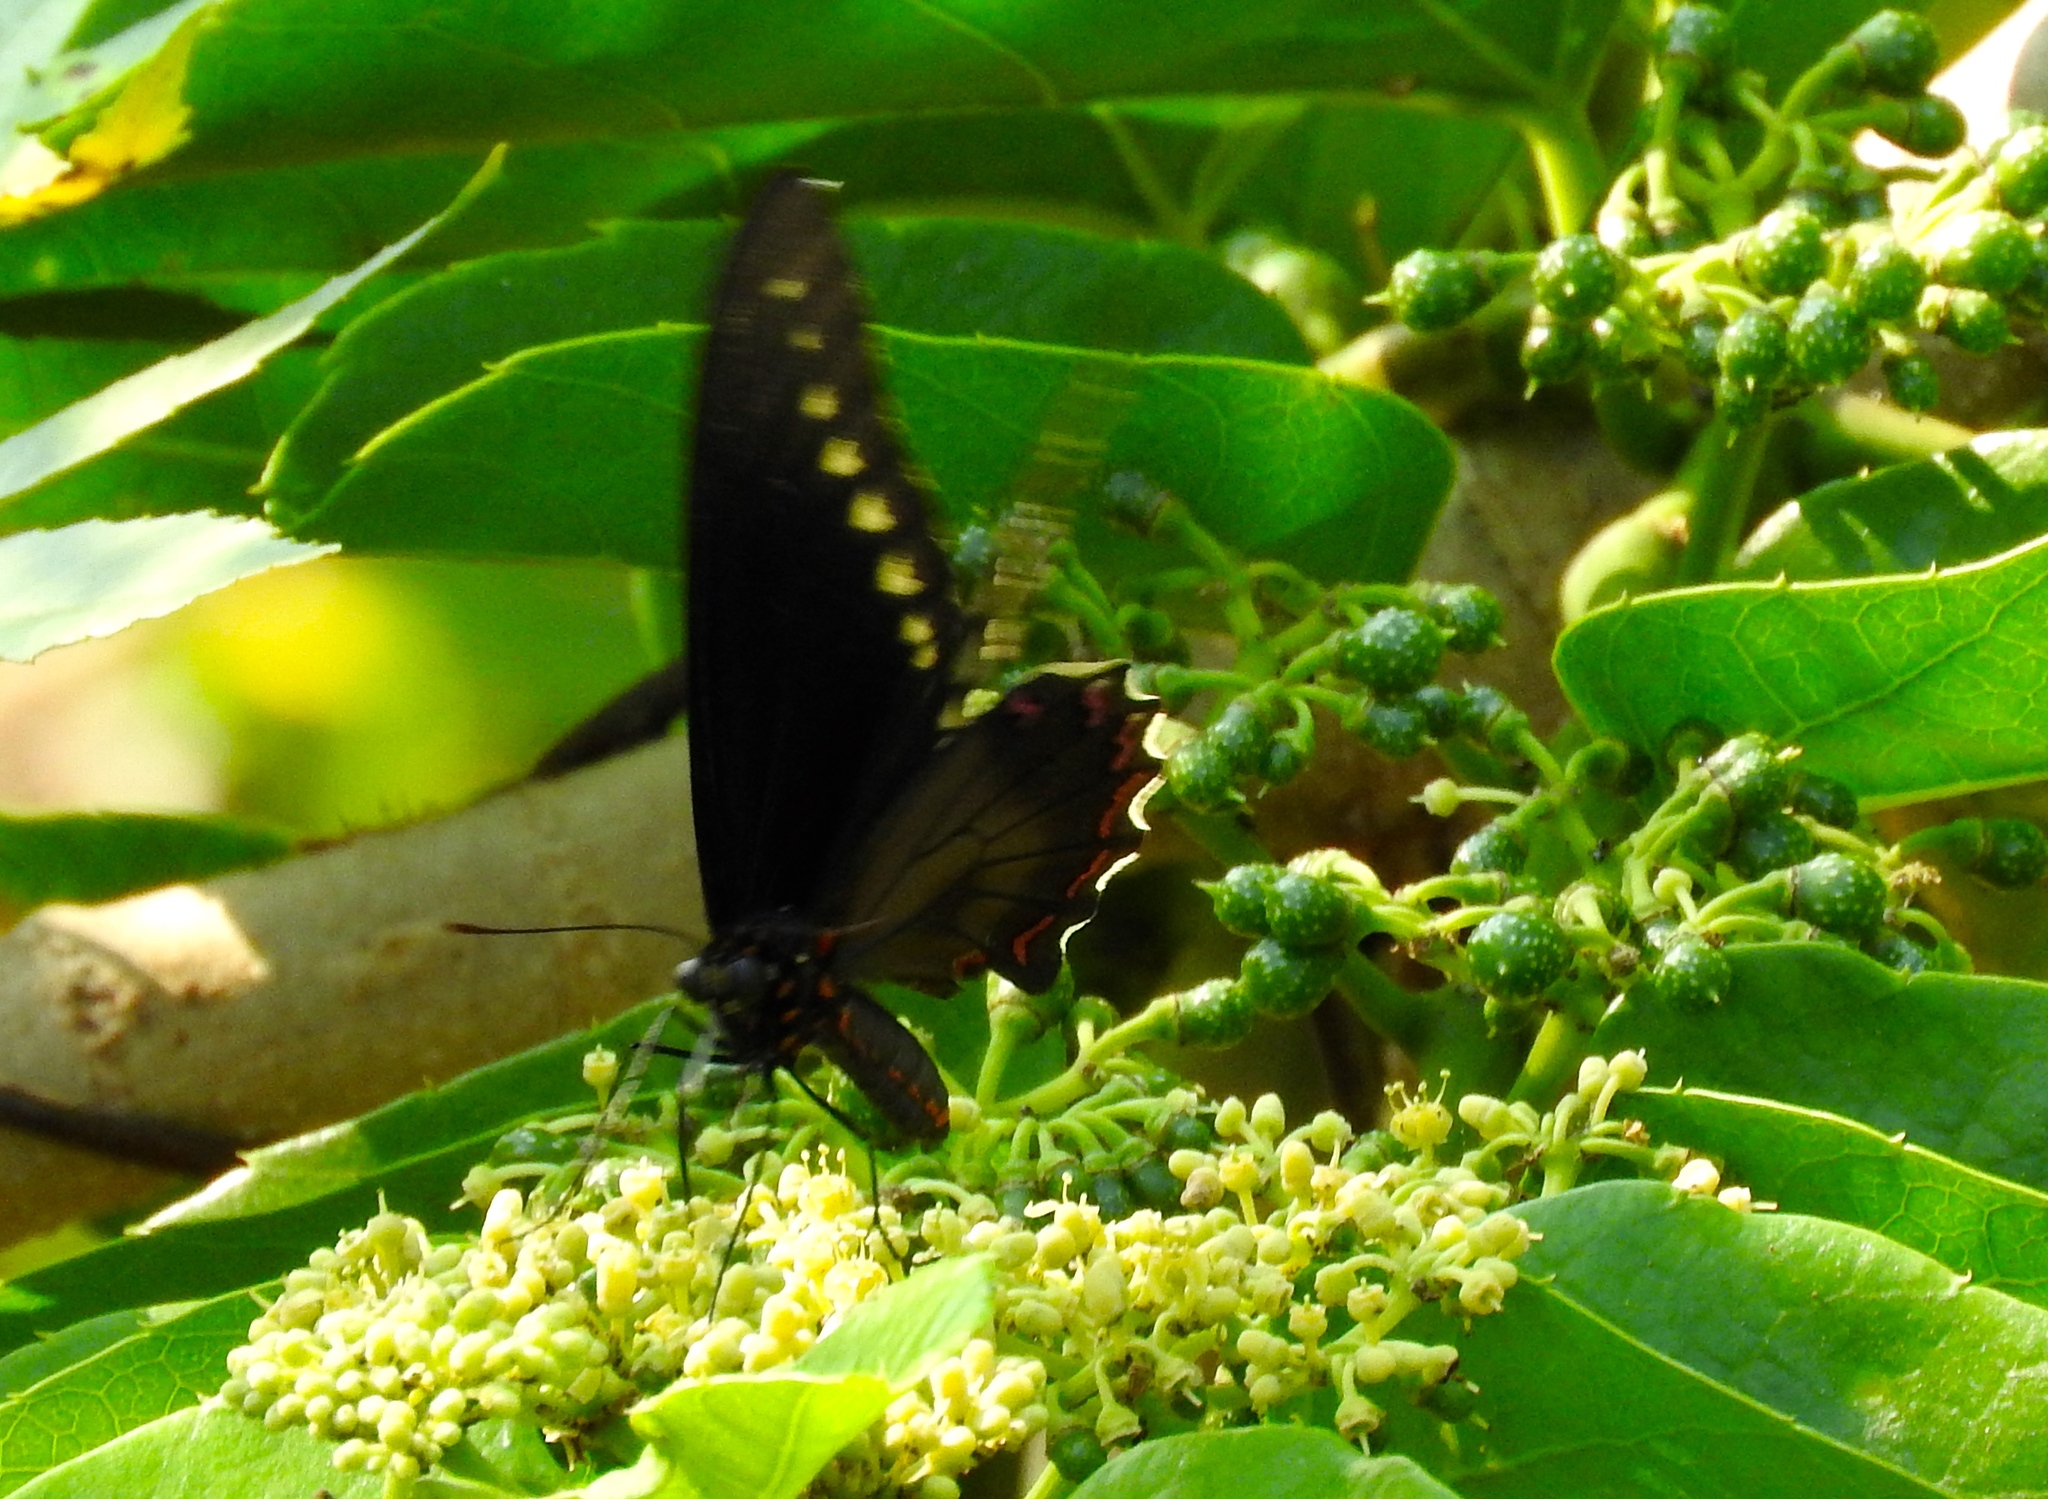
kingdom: Animalia
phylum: Arthropoda
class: Insecta
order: Lepidoptera
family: Papilionidae
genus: Battus
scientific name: Battus
